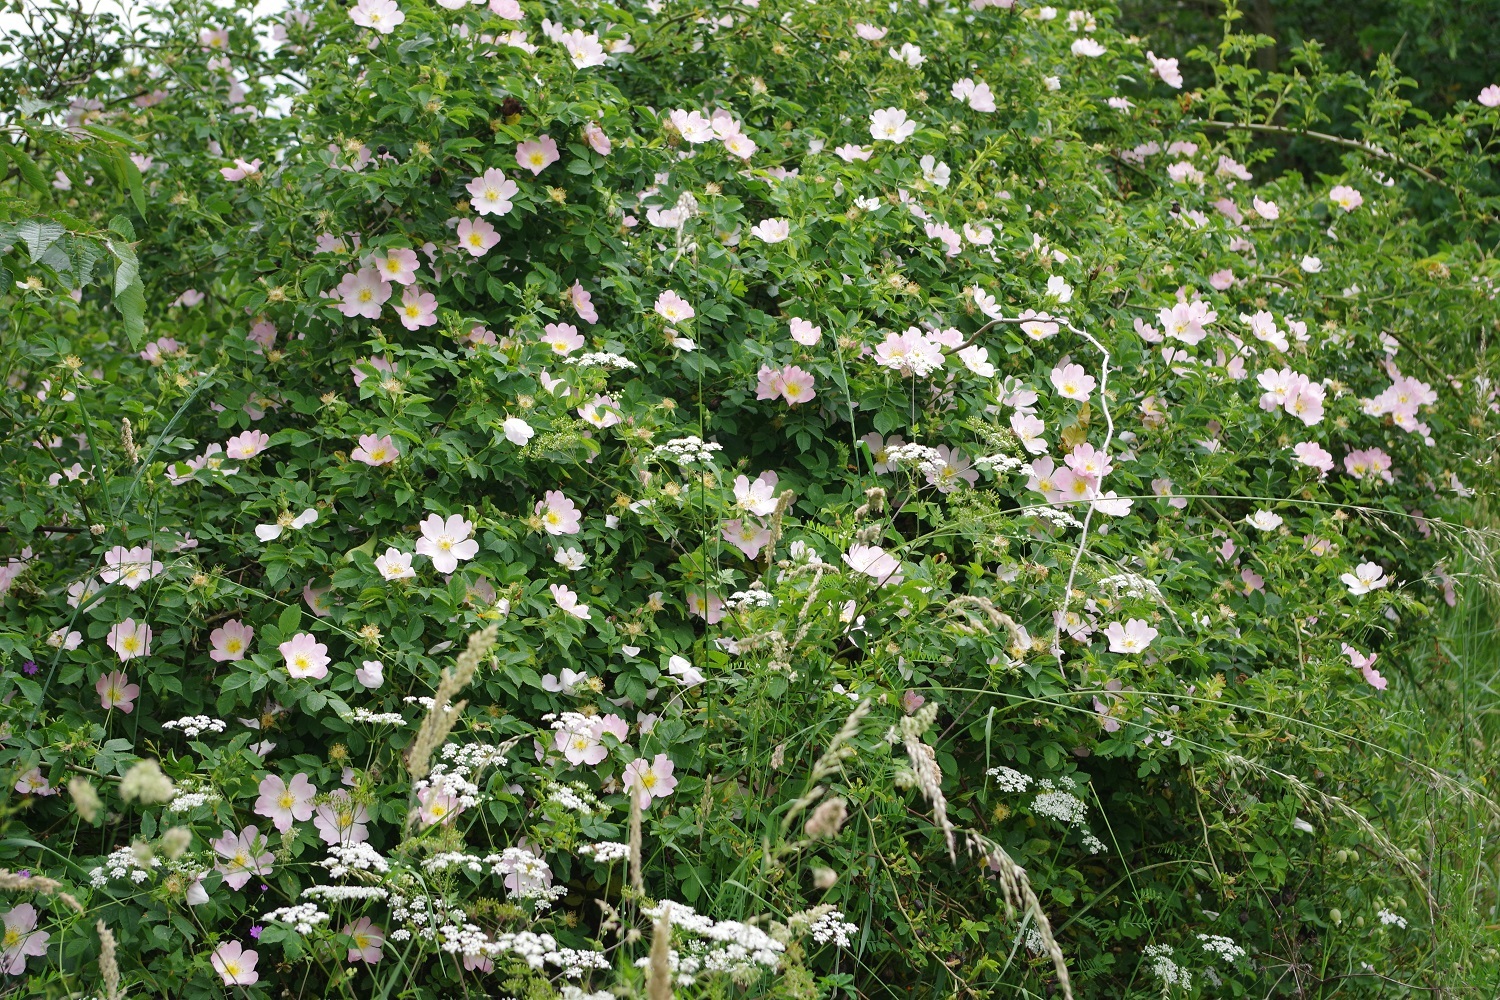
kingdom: Plantae
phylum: Tracheophyta
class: Magnoliopsida
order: Rosales
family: Rosaceae
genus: Rosa
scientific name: Rosa canina
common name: Dog rose
